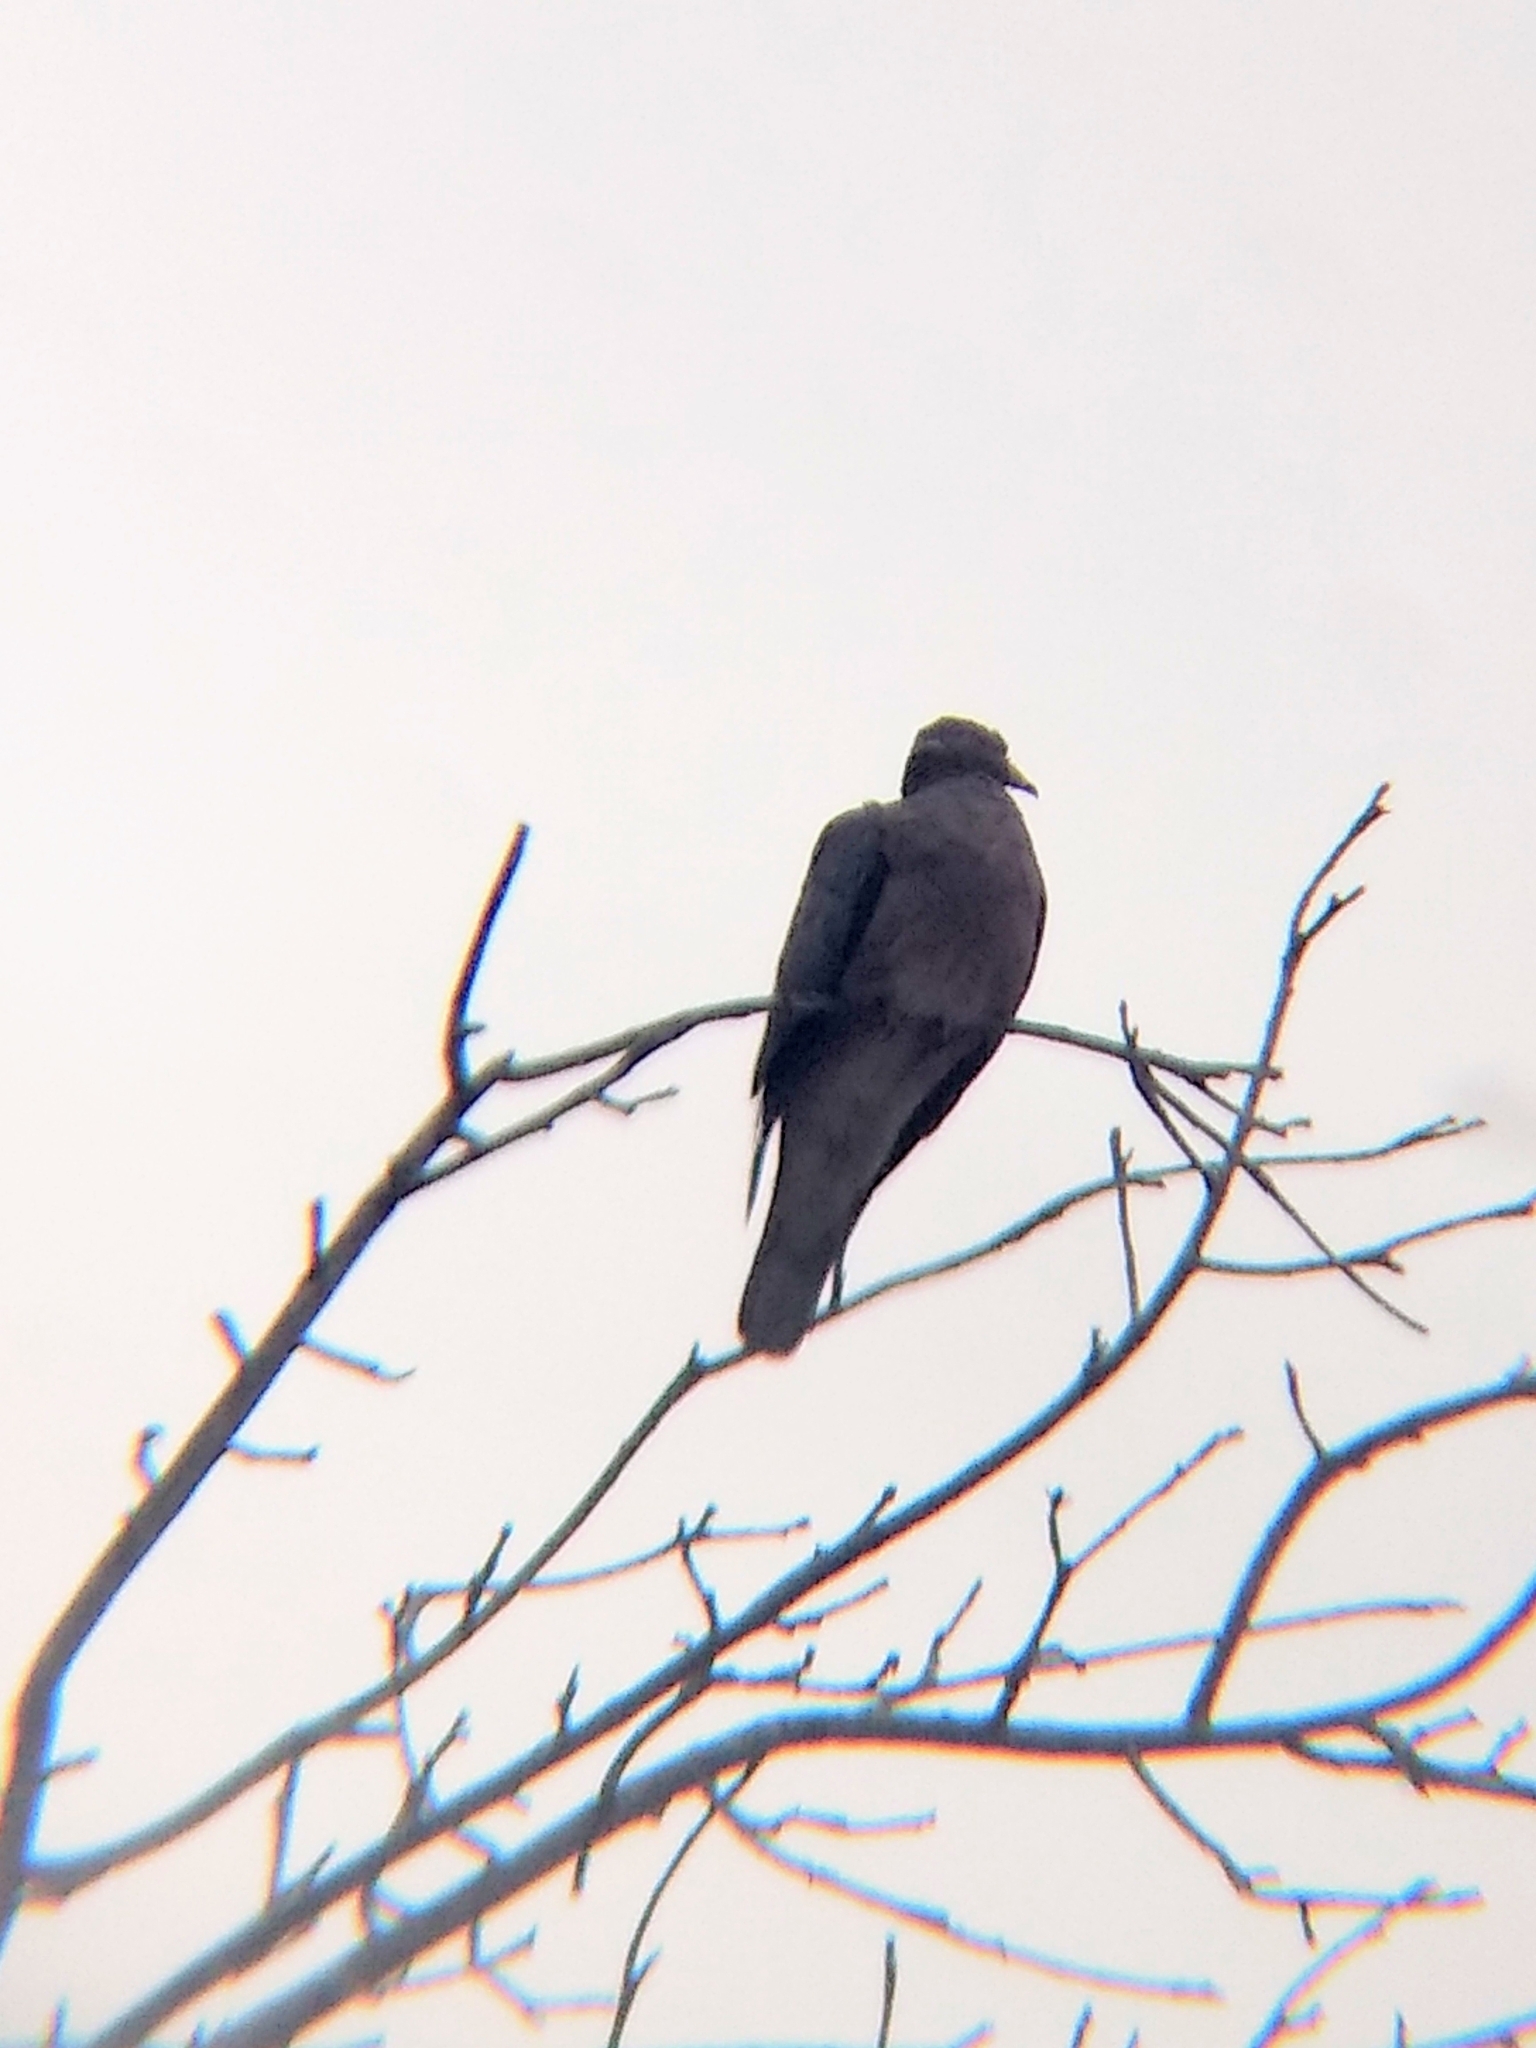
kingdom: Animalia
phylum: Chordata
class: Aves
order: Columbiformes
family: Columbidae
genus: Patagioenas
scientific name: Patagioenas fasciata
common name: Band-tailed pigeon
